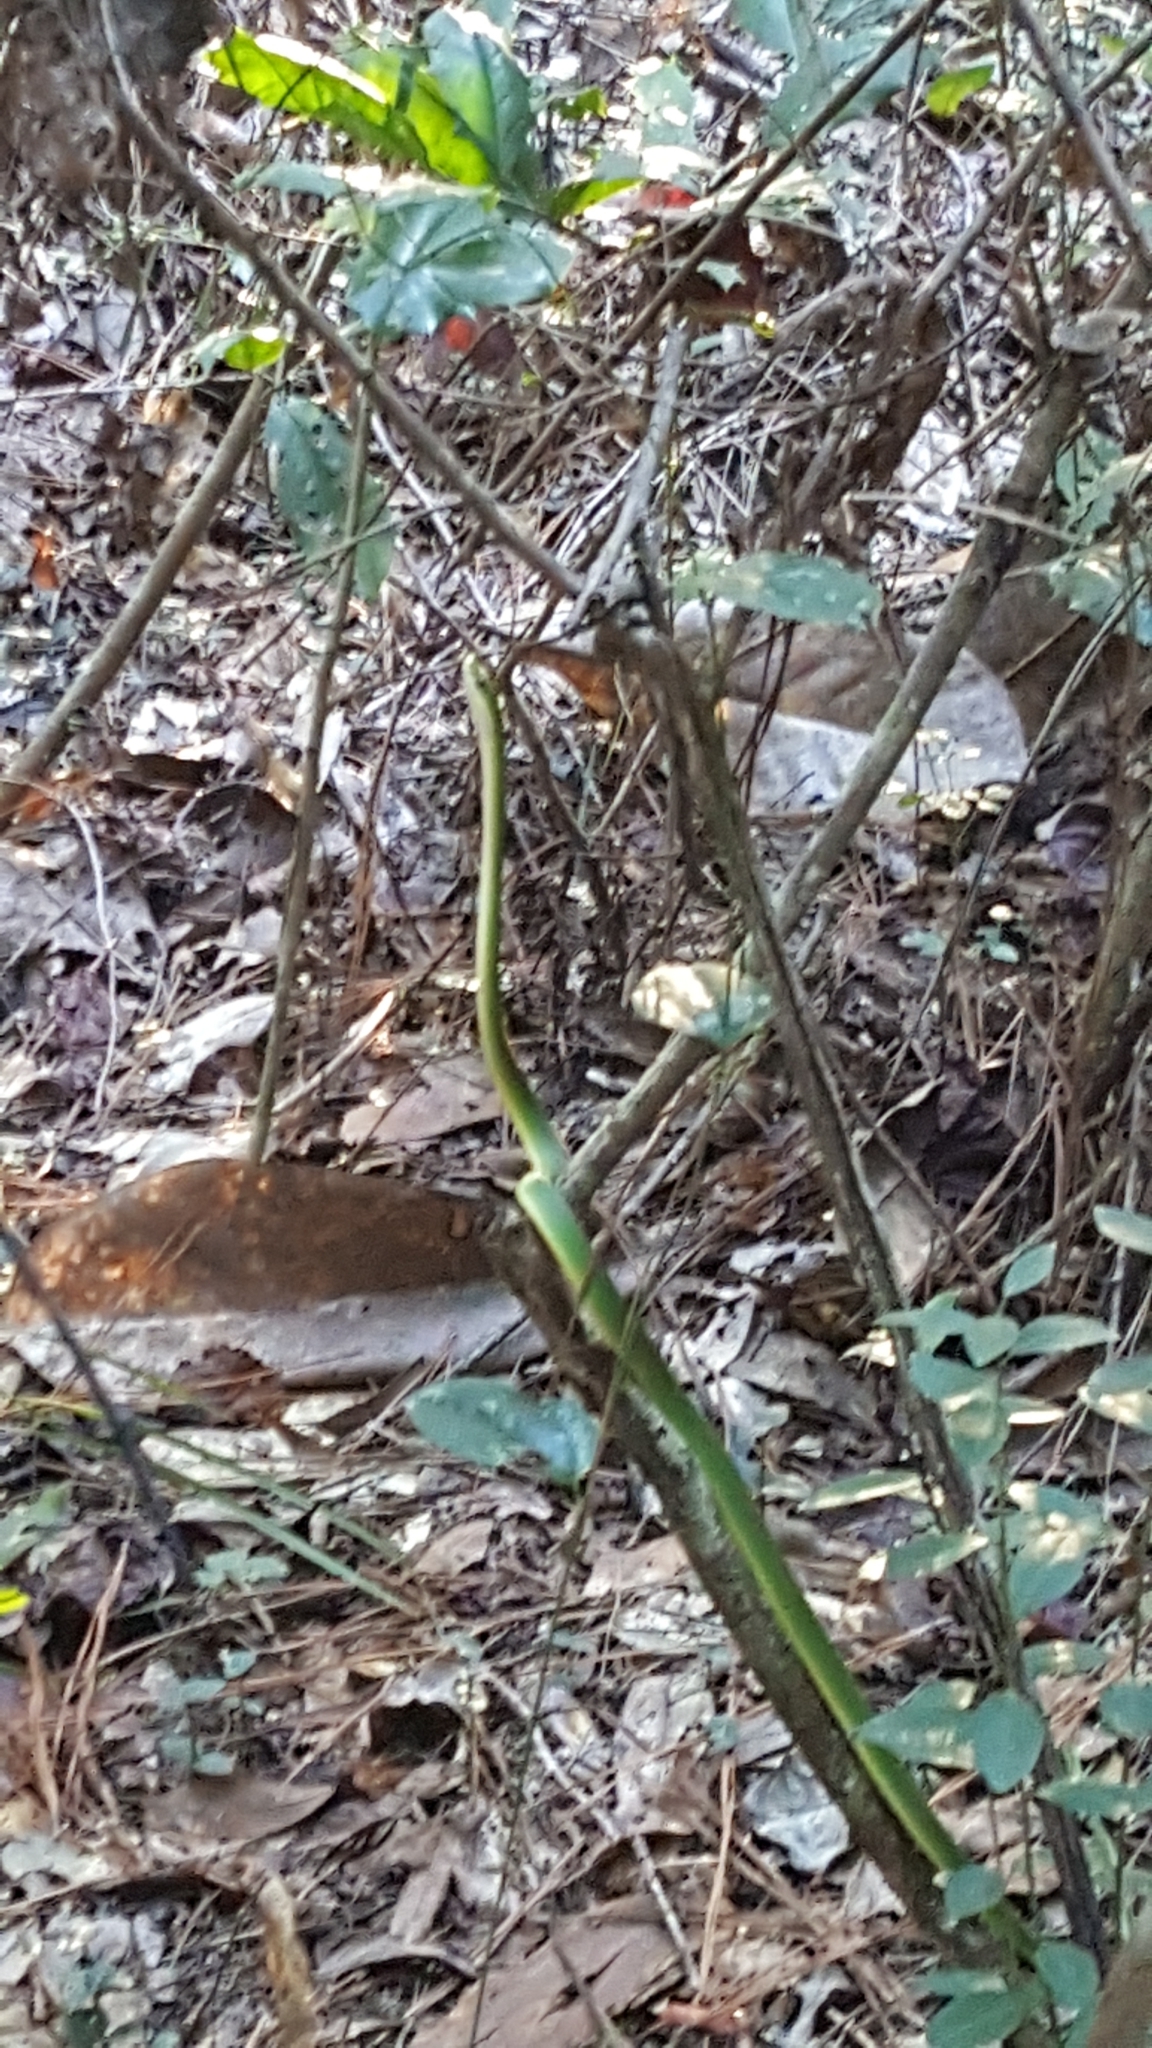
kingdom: Animalia
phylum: Chordata
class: Squamata
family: Colubridae
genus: Opheodrys
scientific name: Opheodrys aestivus
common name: Rough greensnake
